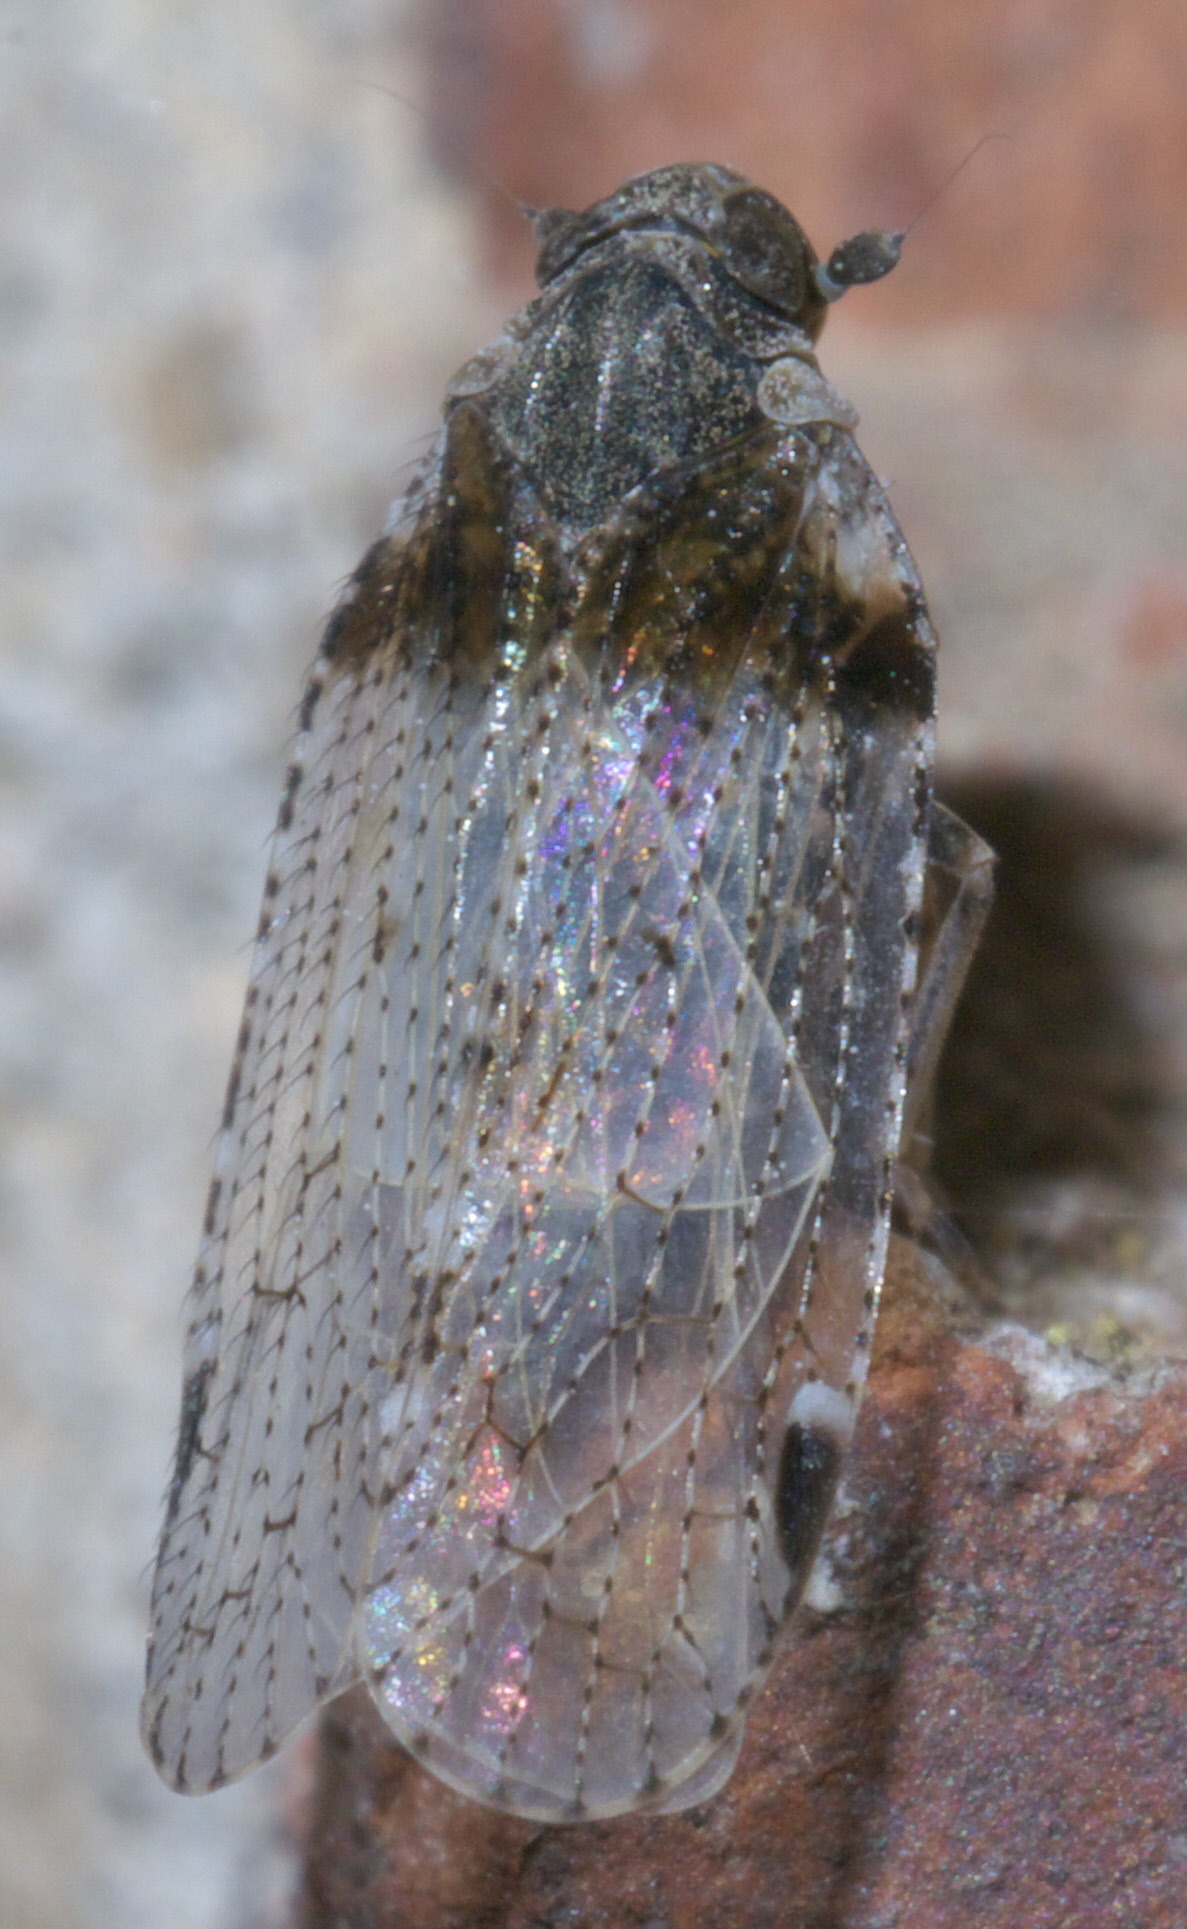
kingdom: Animalia
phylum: Arthropoda
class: Insecta
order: Hemiptera
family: Cixiidae
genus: Cixius
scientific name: Cixius stigmatus
